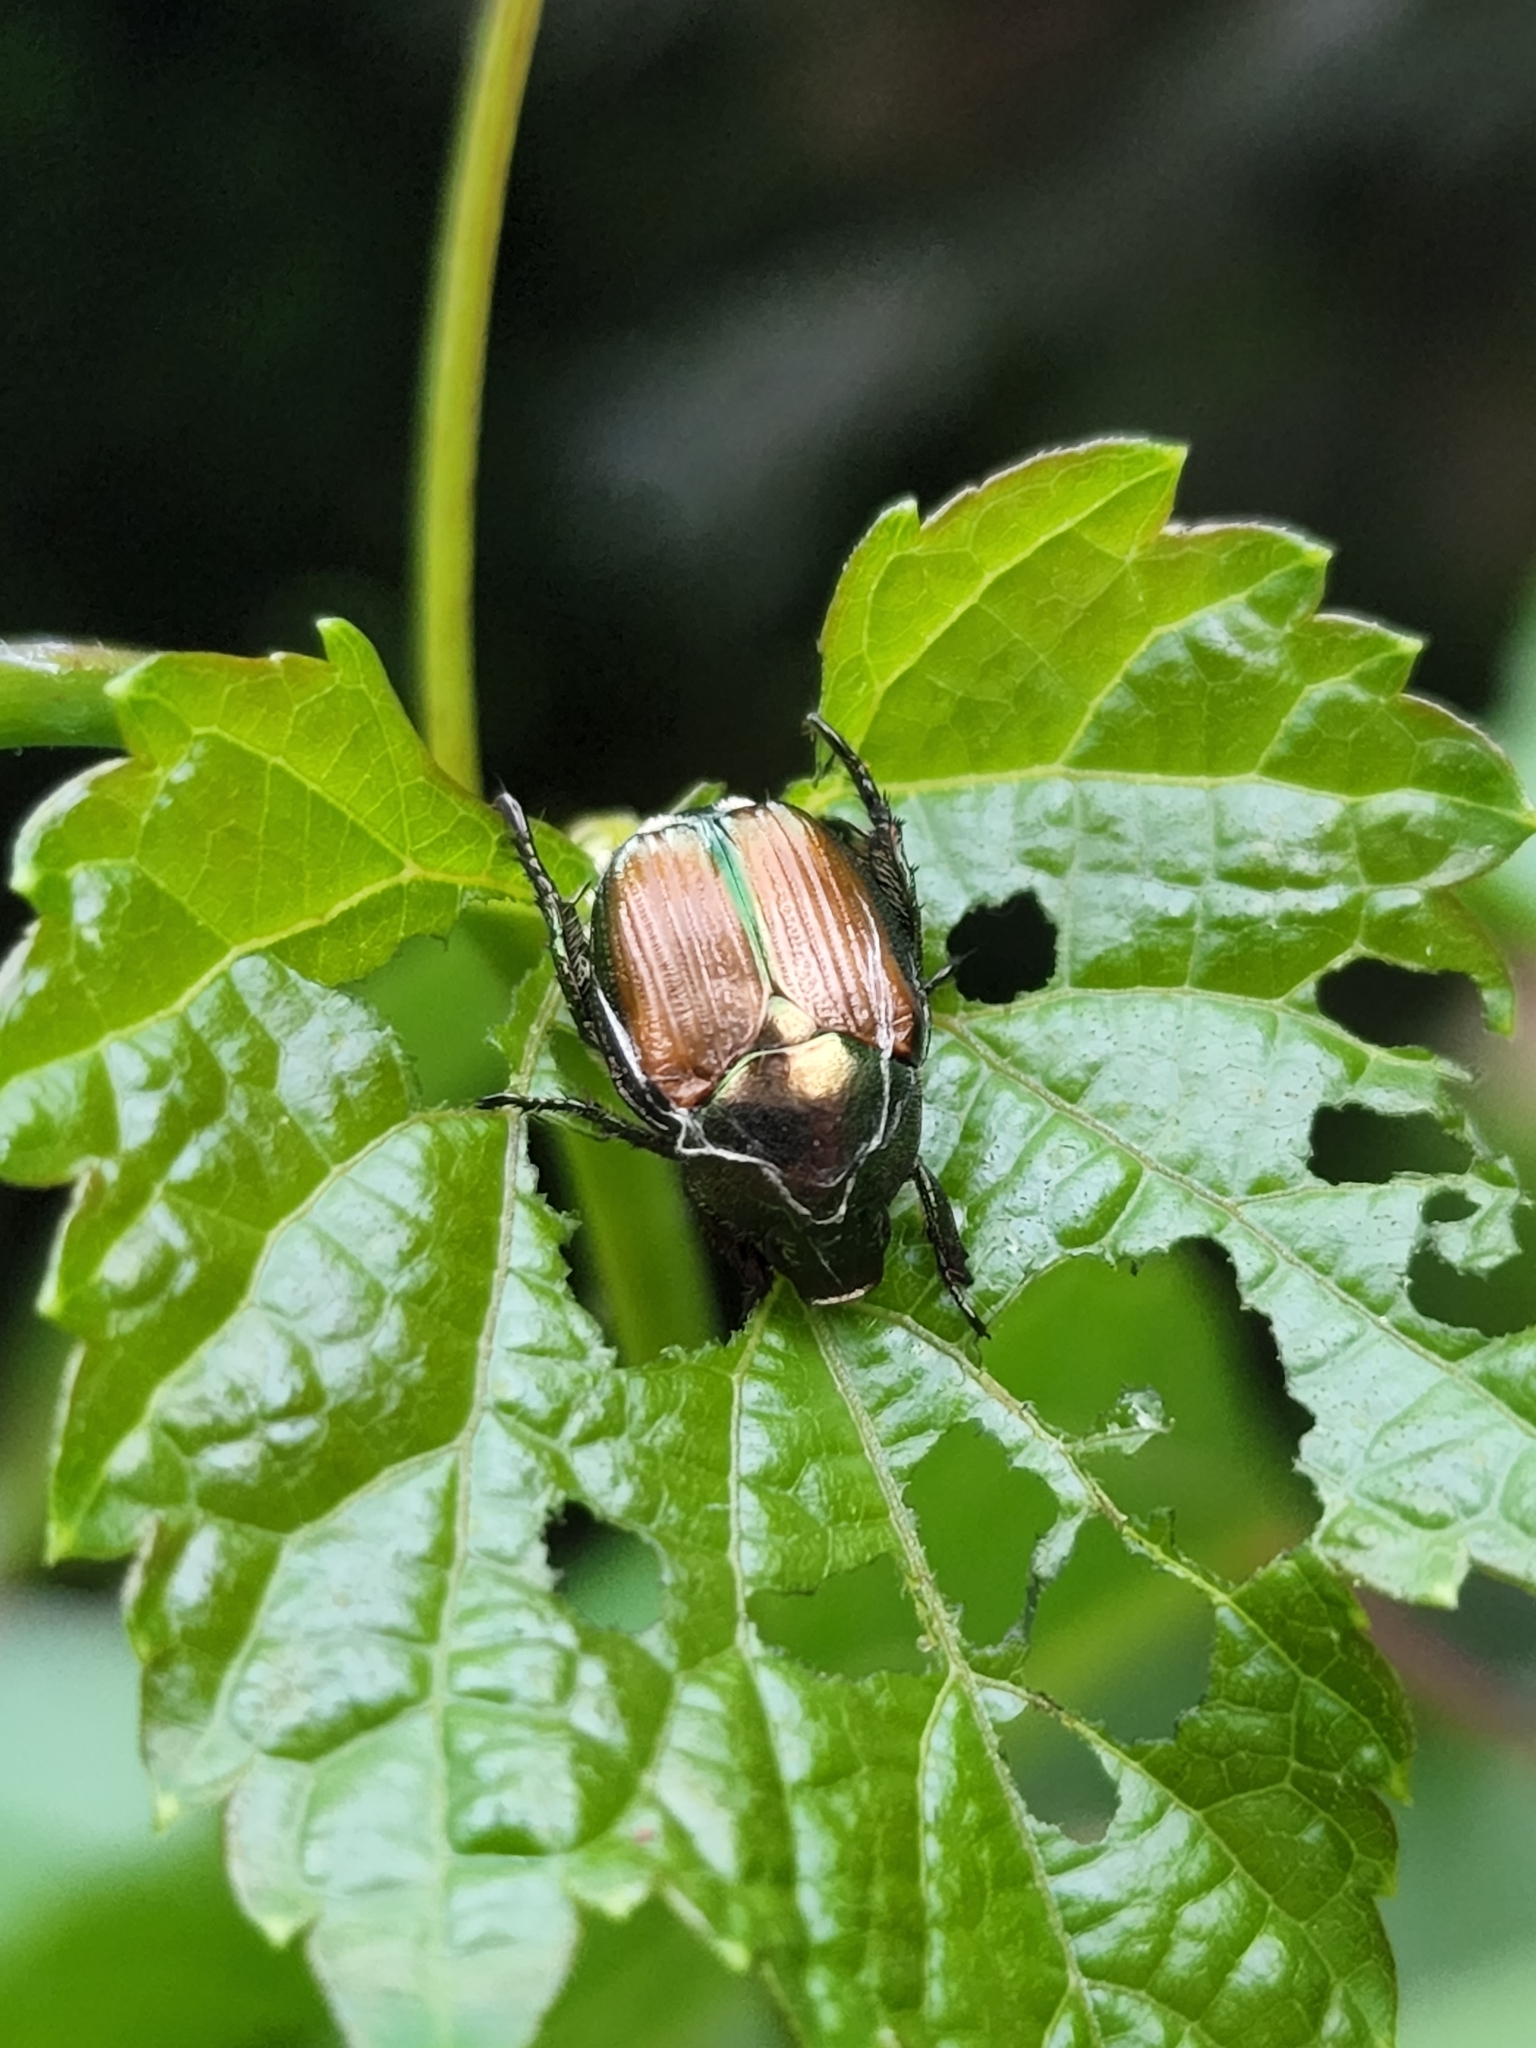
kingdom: Animalia
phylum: Arthropoda
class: Insecta
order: Coleoptera
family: Scarabaeidae
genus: Popillia
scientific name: Popillia japonica
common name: Japanese beetle
